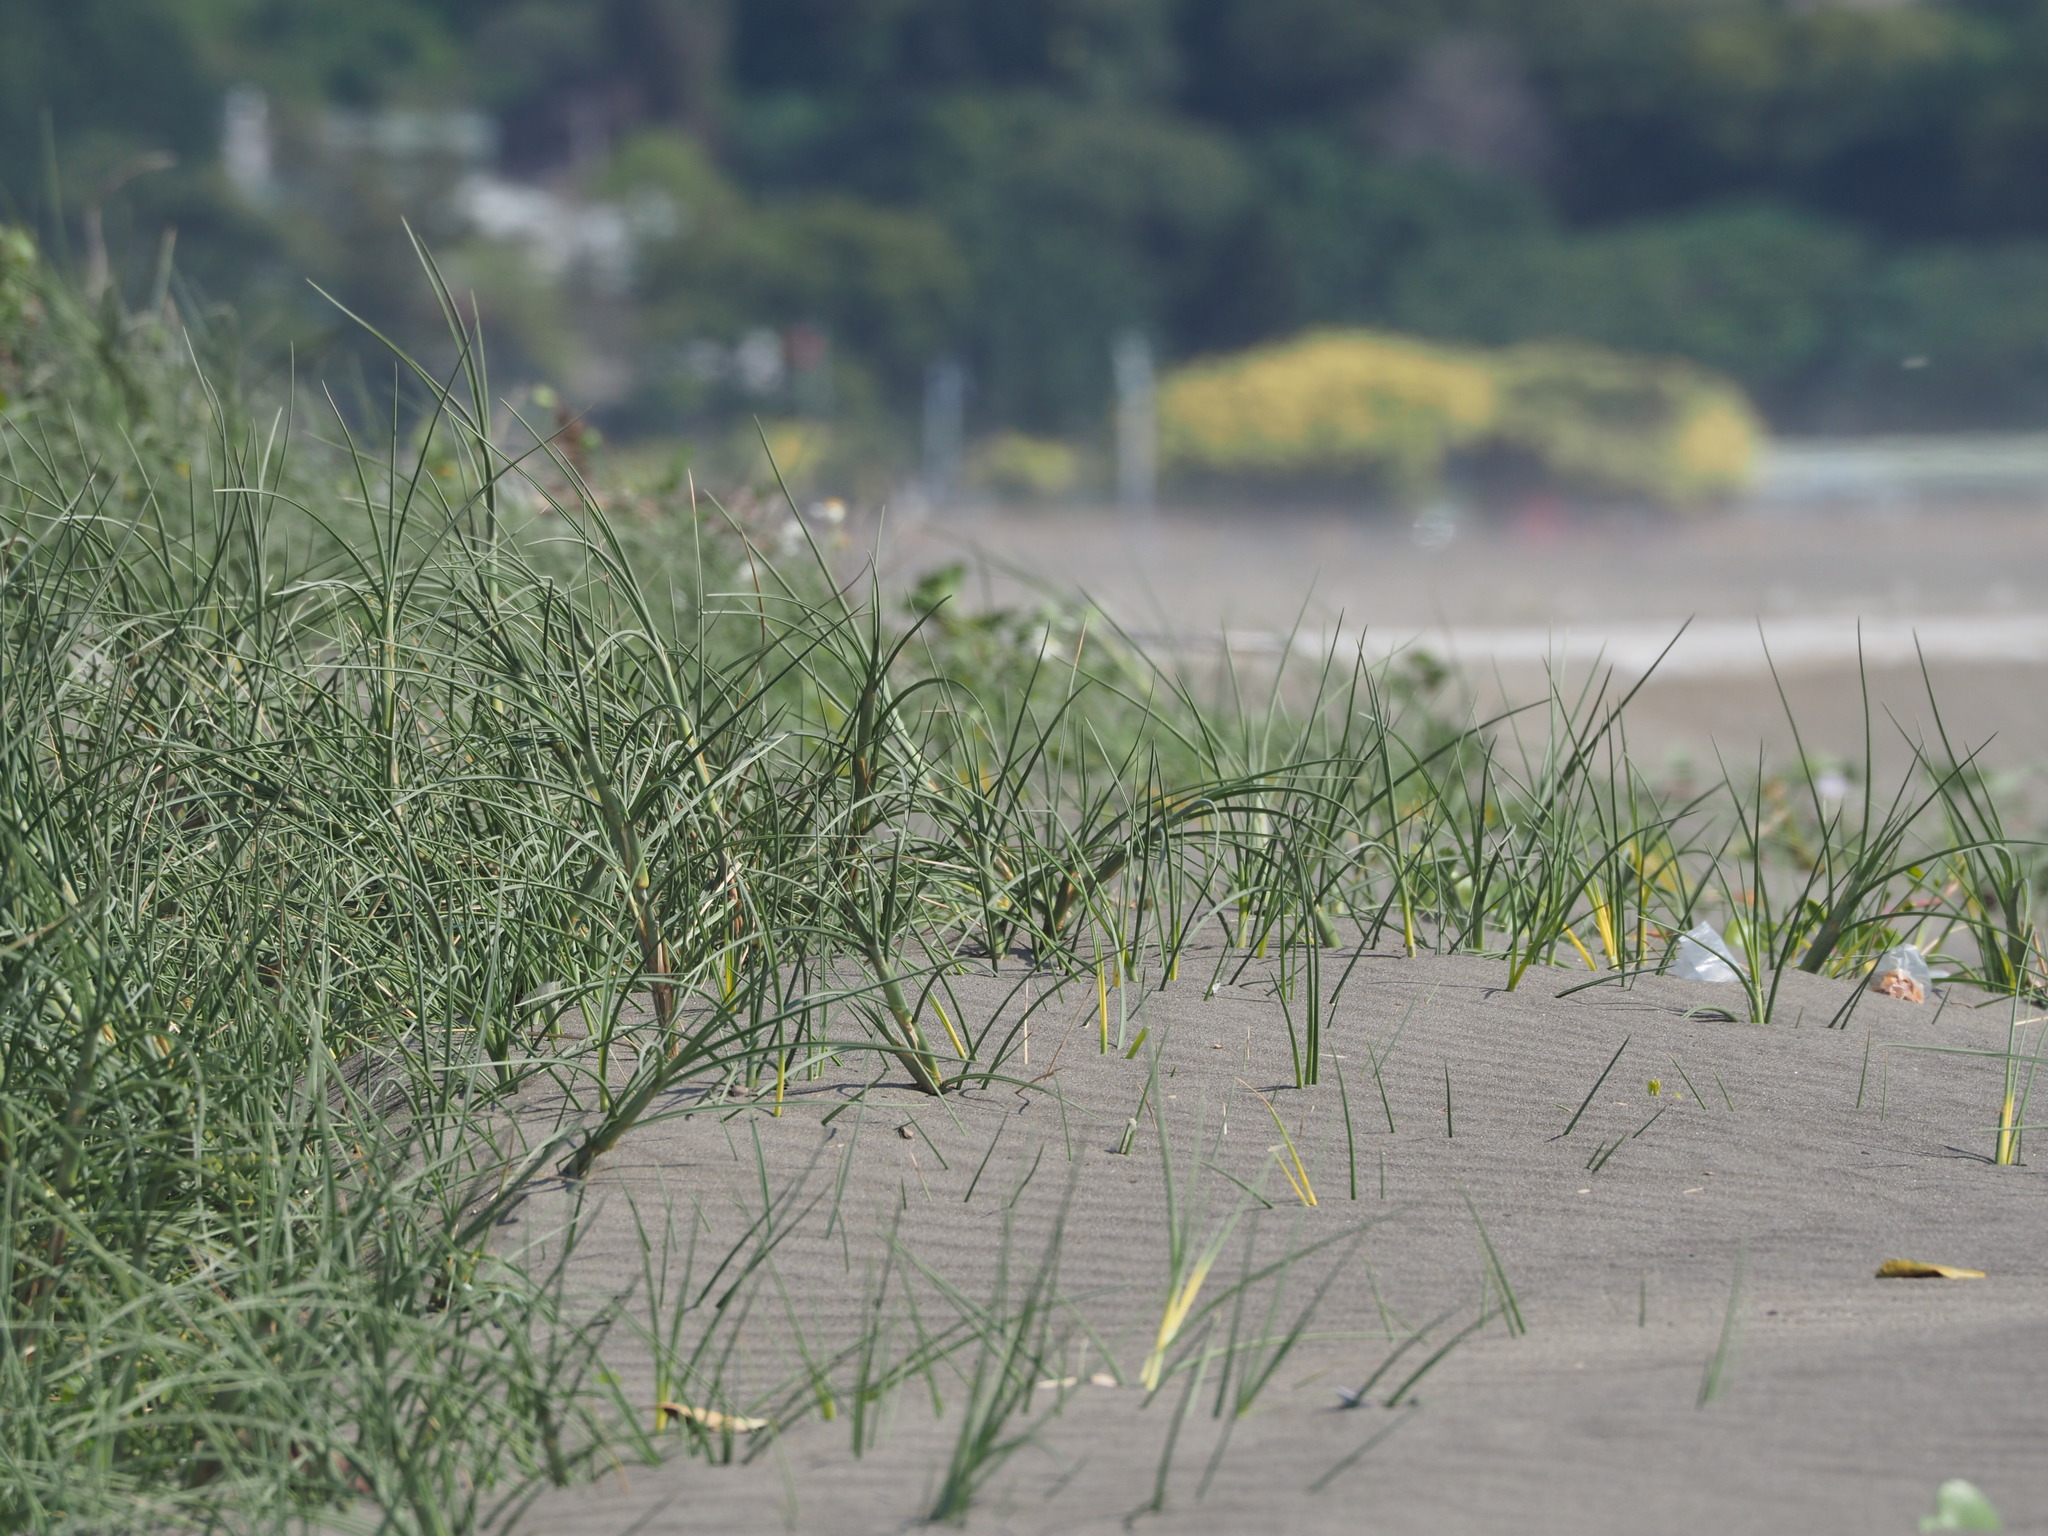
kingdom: Plantae
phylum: Tracheophyta
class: Liliopsida
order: Poales
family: Poaceae
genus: Spinifex
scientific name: Spinifex littoreus
